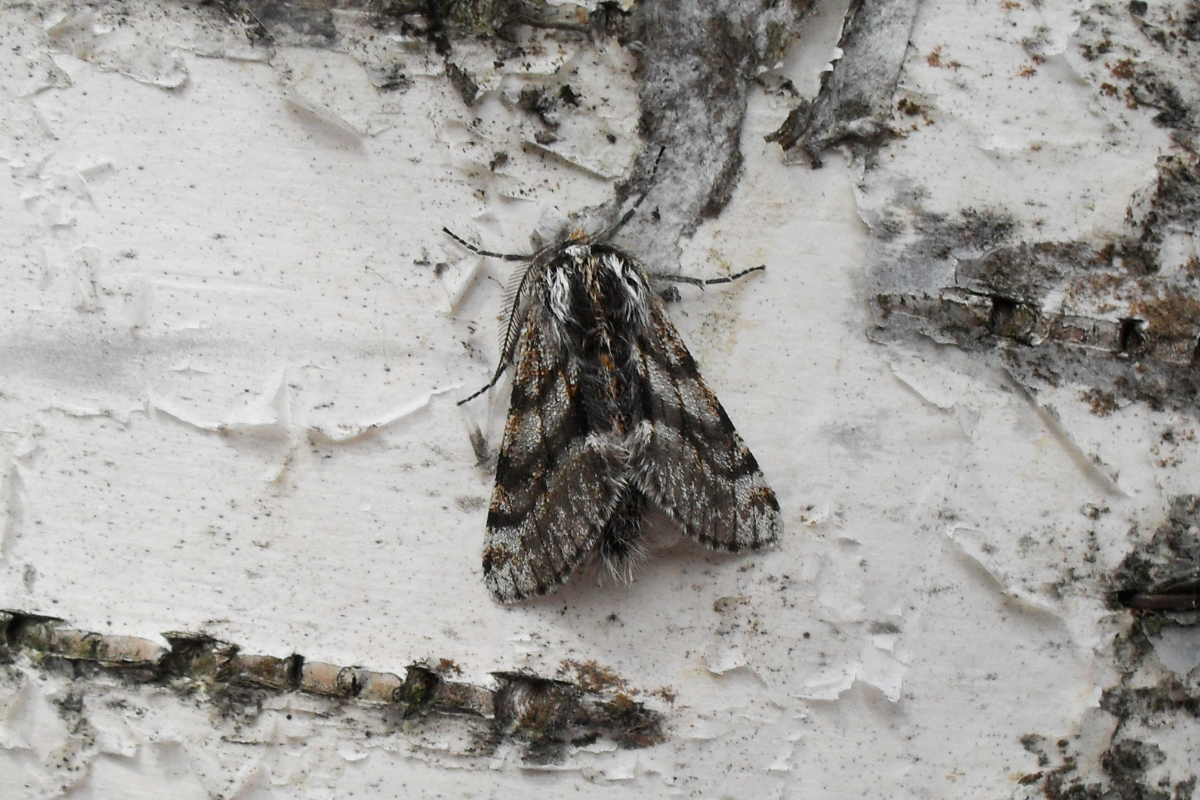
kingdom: Animalia
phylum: Arthropoda
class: Insecta
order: Lepidoptera
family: Geometridae
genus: Lycia
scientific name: Lycia pomonaria
